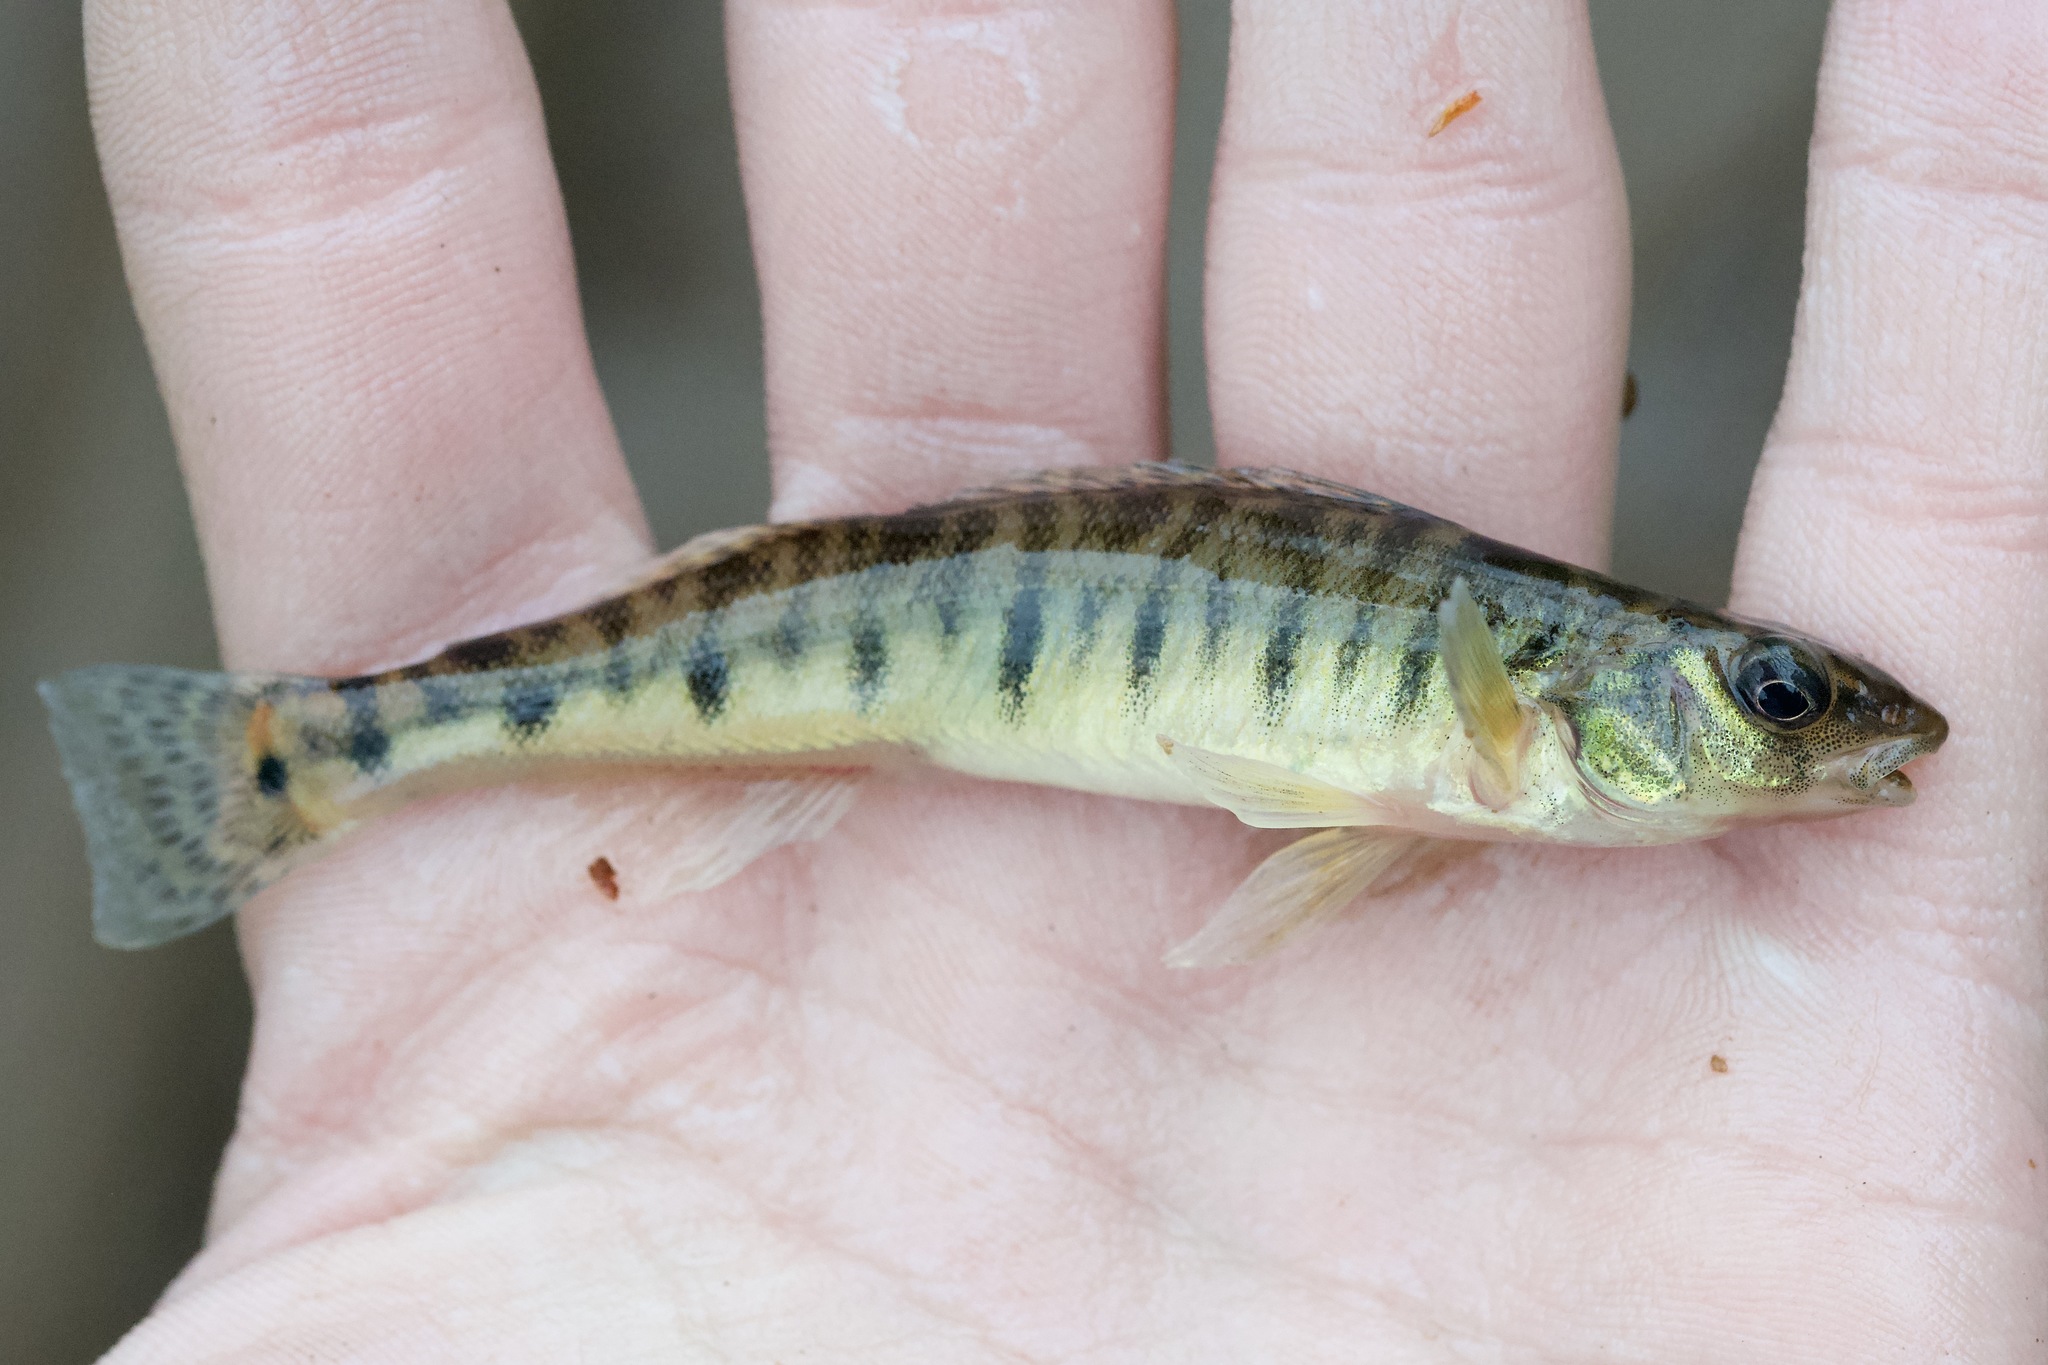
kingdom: Animalia
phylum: Chordata
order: Perciformes
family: Percidae
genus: Percina
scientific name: Percina caprodes
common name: Logperch
